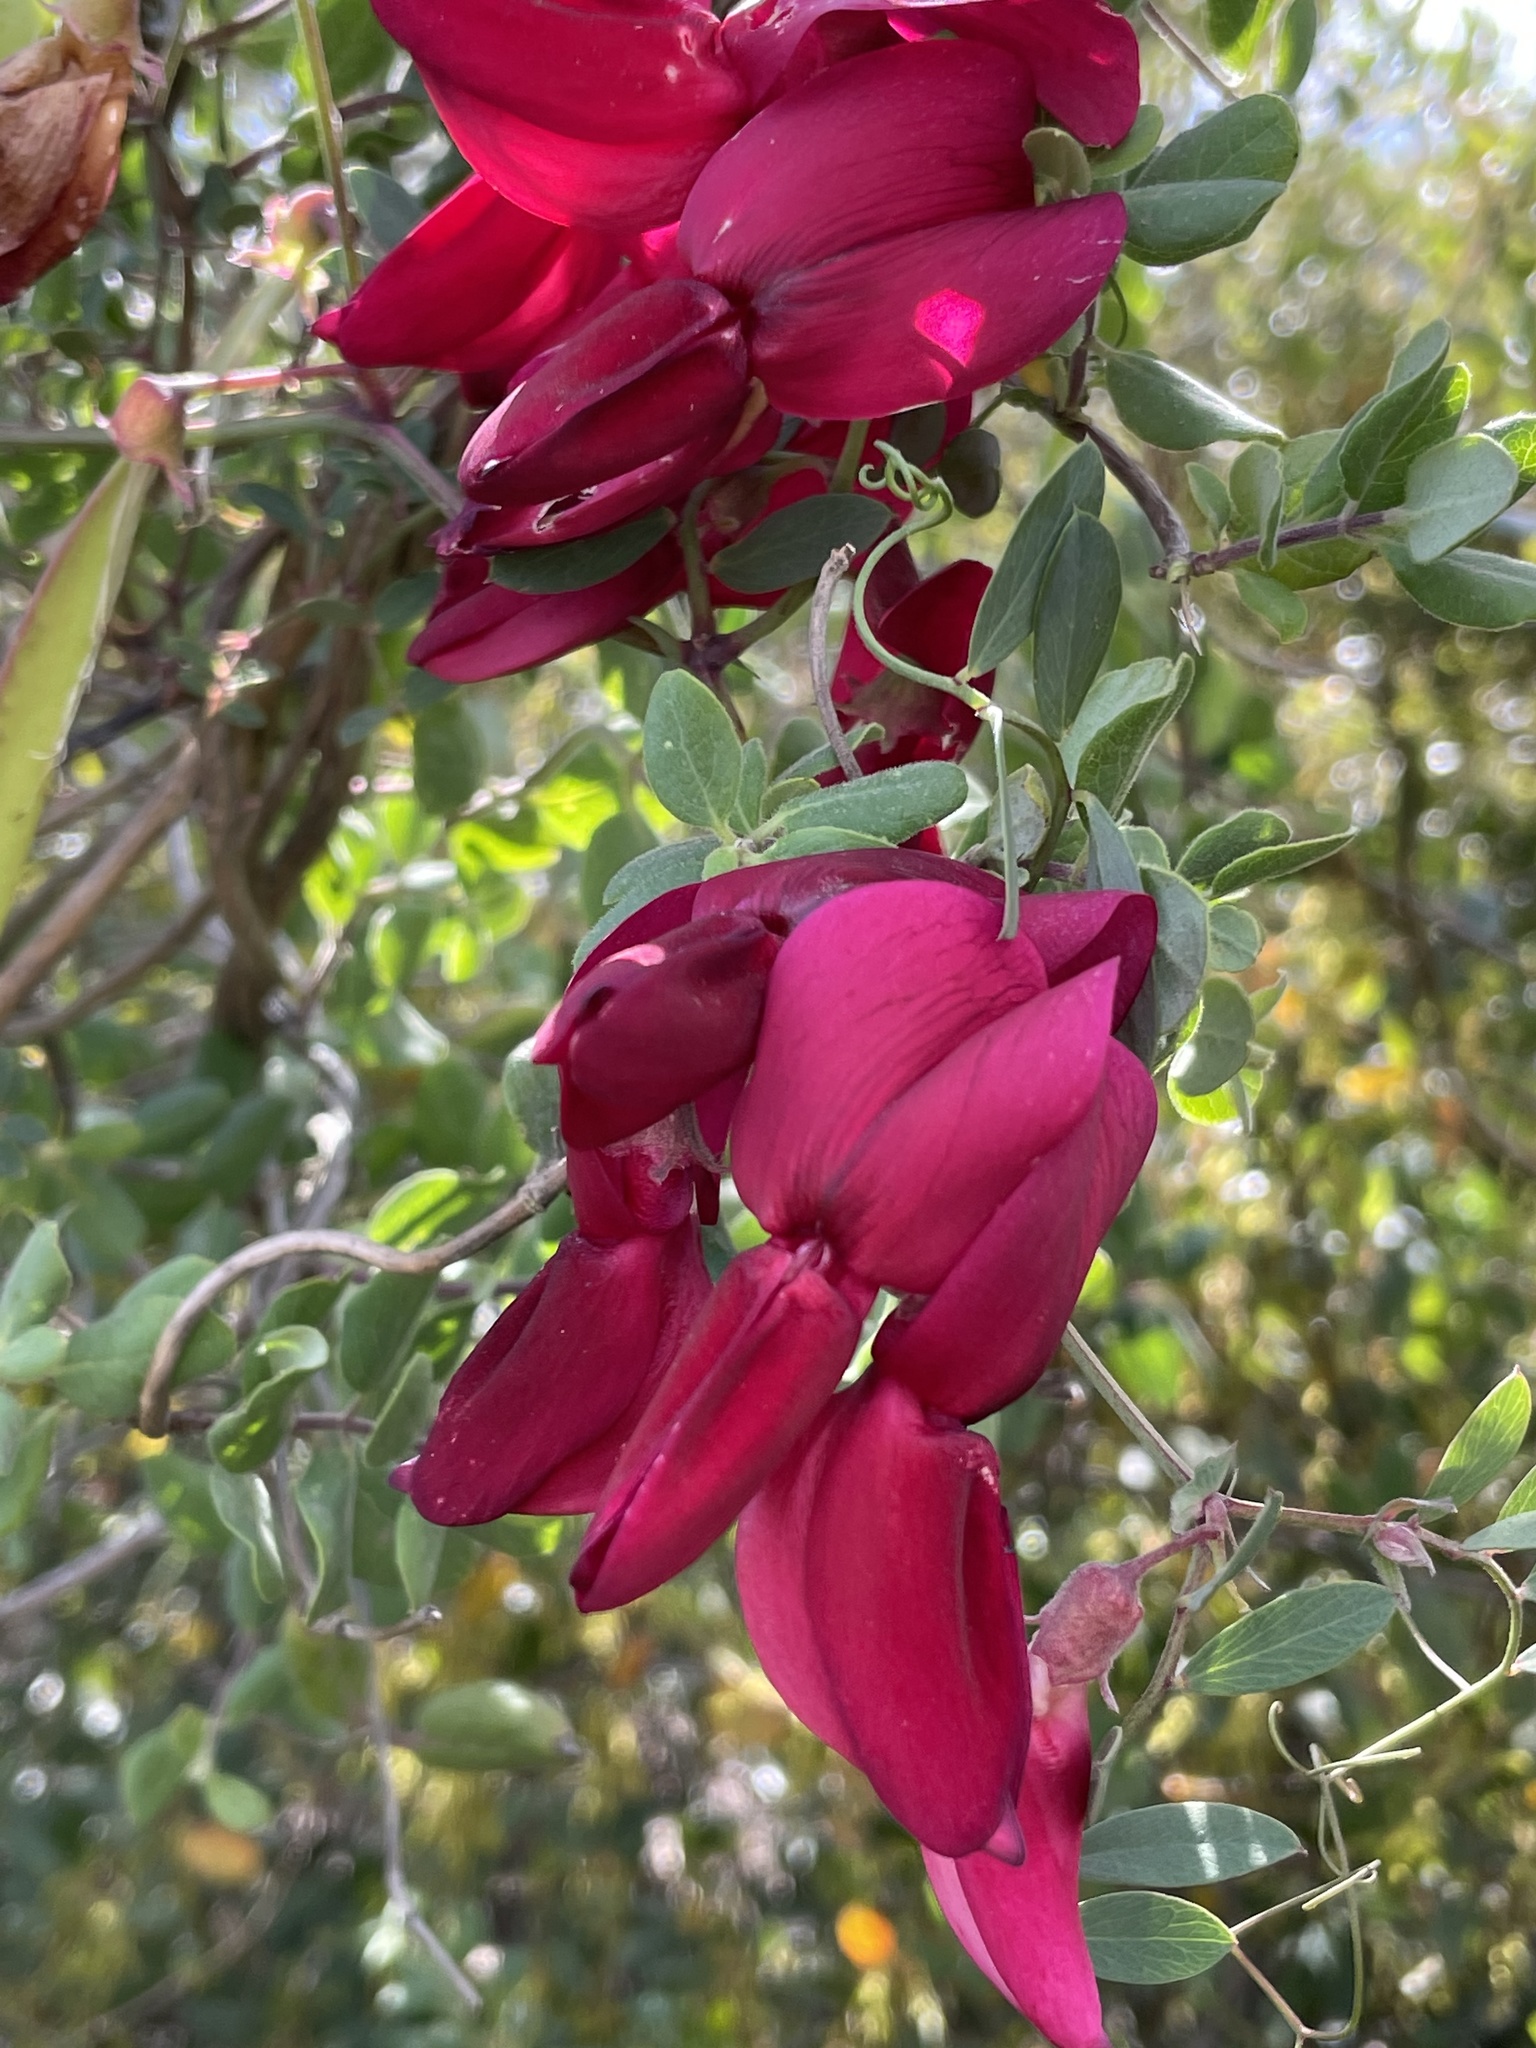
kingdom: Plantae
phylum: Tracheophyta
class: Magnoliopsida
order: Fabales
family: Fabaceae
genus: Lathyrus
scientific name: Lathyrus splendens
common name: Campo-pea
